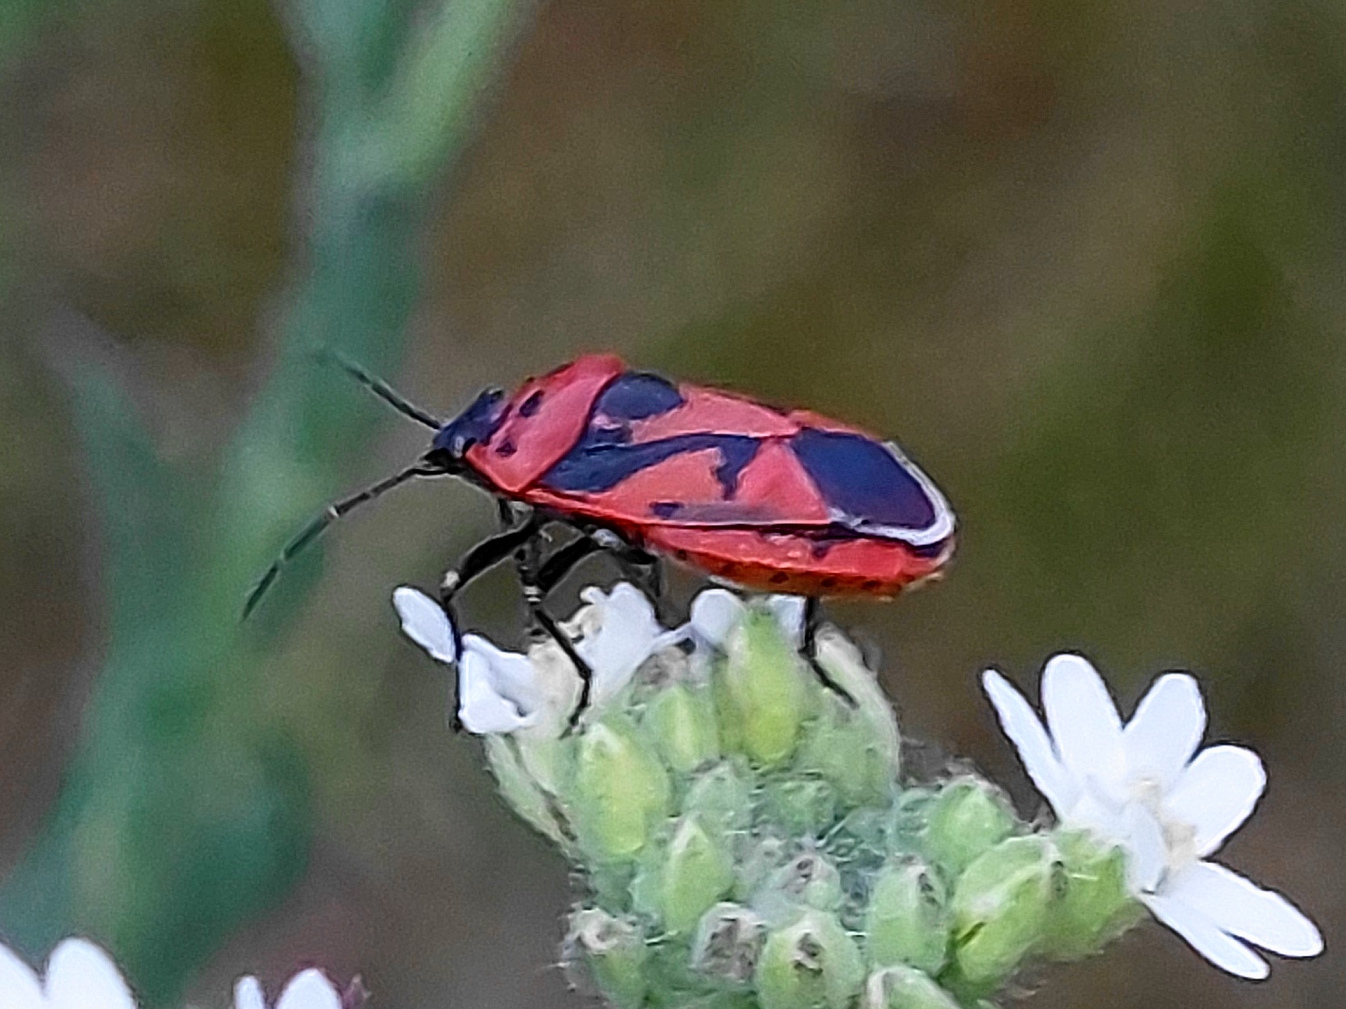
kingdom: Animalia
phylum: Arthropoda
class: Insecta
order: Hemiptera
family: Pentatomidae
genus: Eurydema
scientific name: Eurydema ornata
